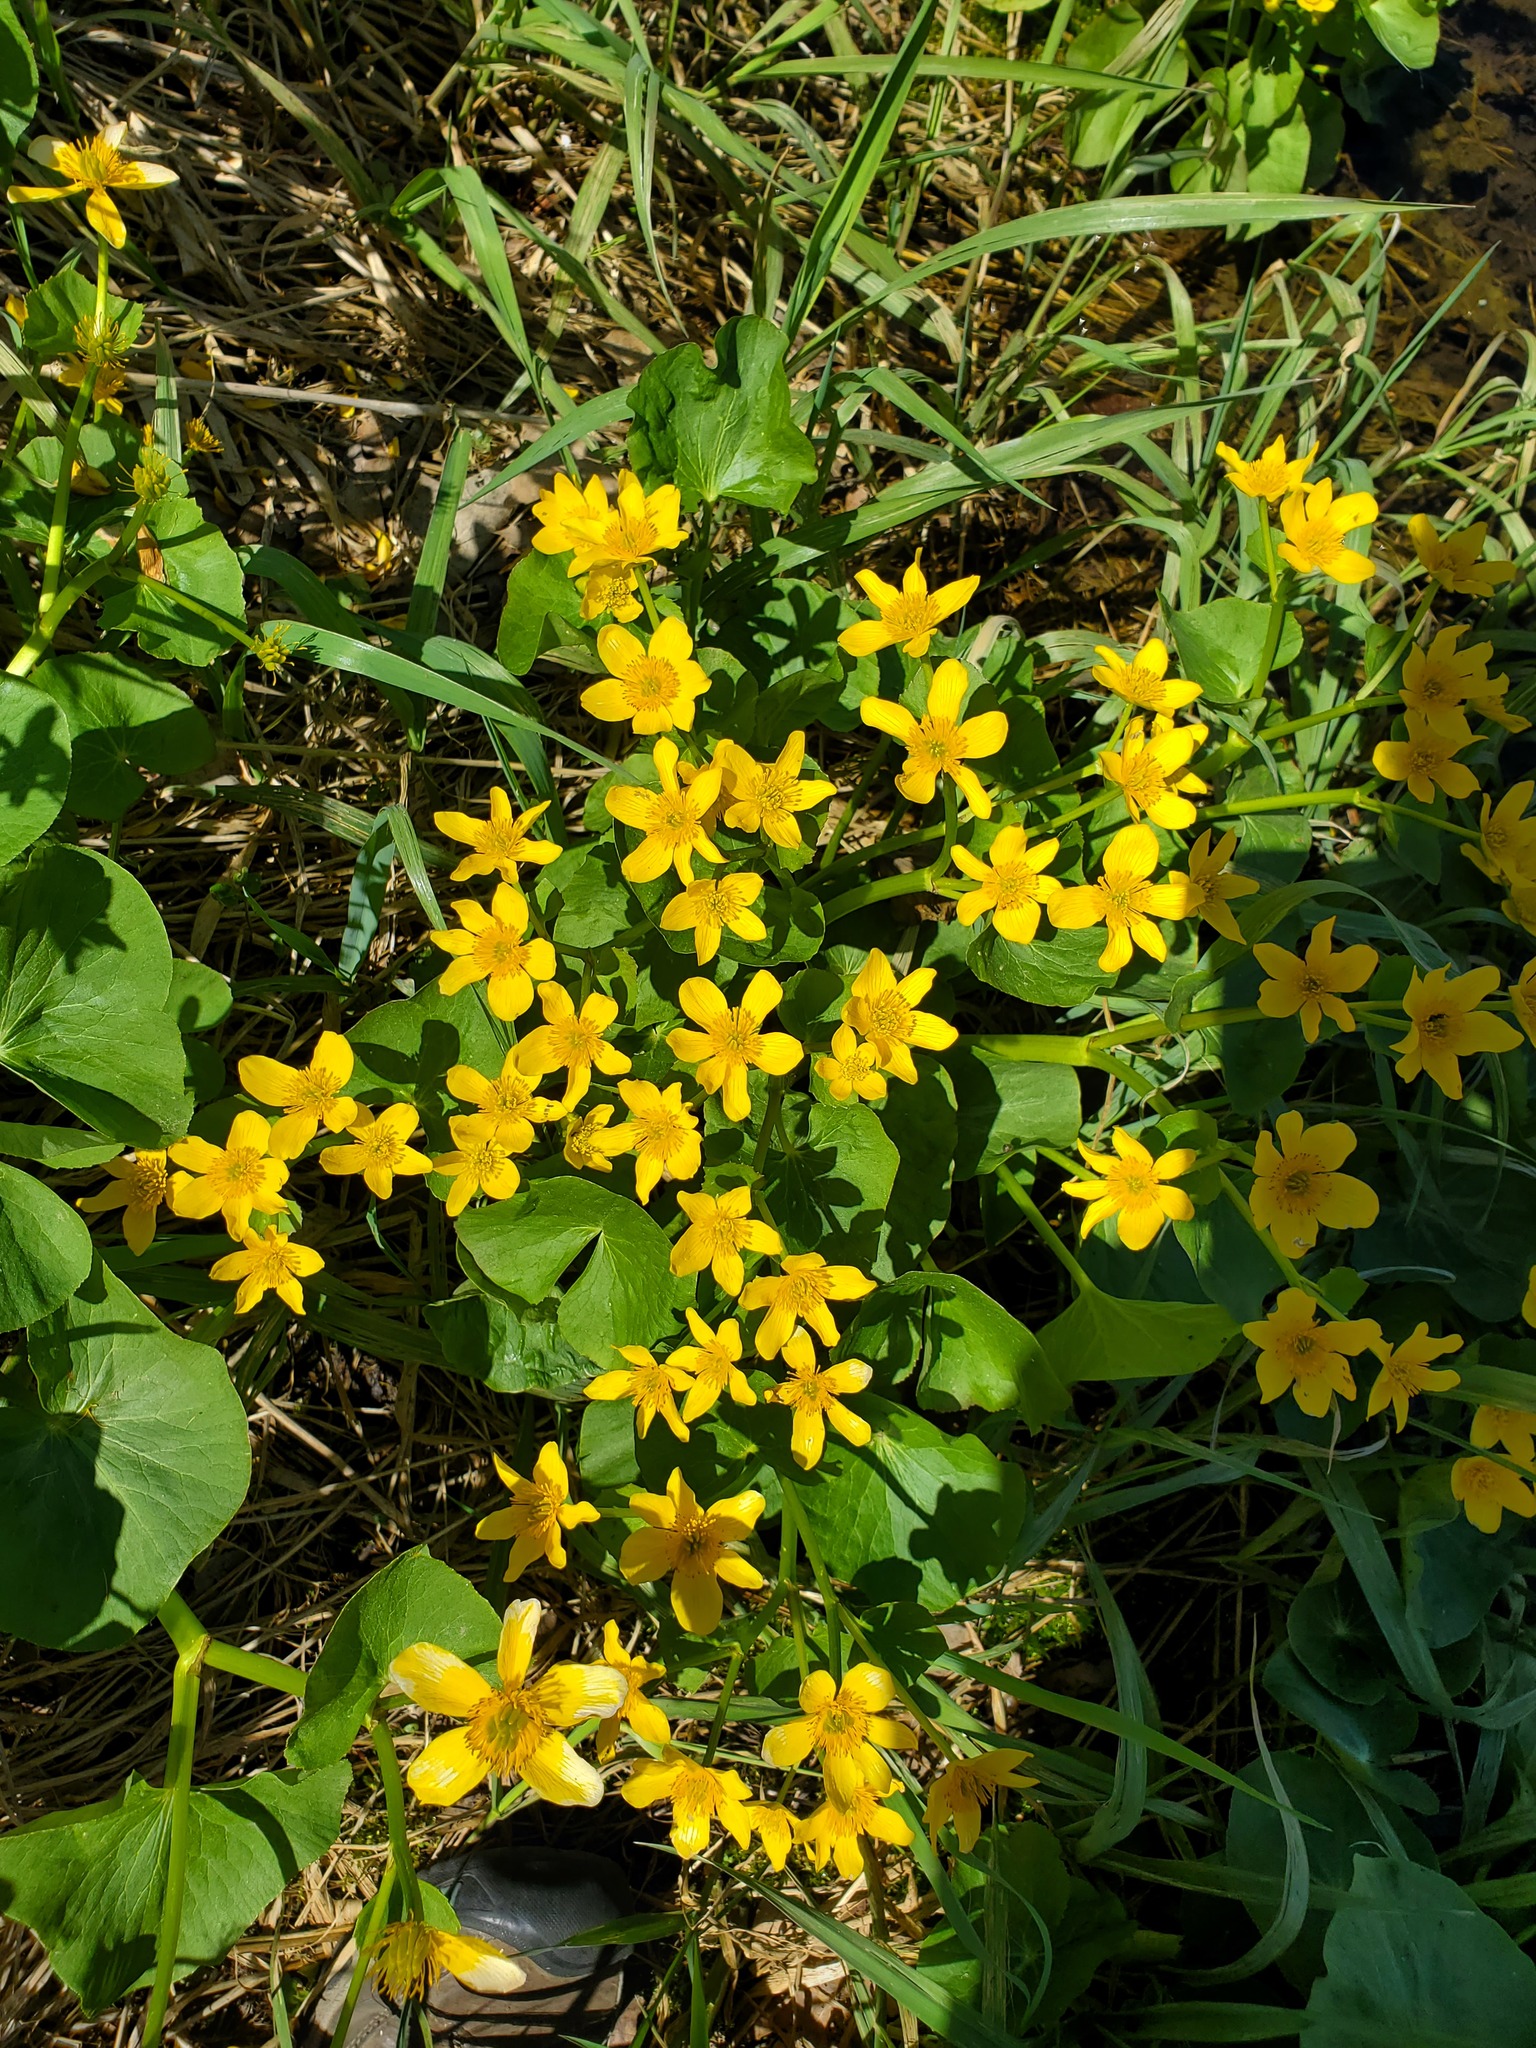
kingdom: Plantae
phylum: Tracheophyta
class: Magnoliopsida
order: Ranunculales
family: Ranunculaceae
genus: Caltha
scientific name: Caltha palustris
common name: Marsh marigold
